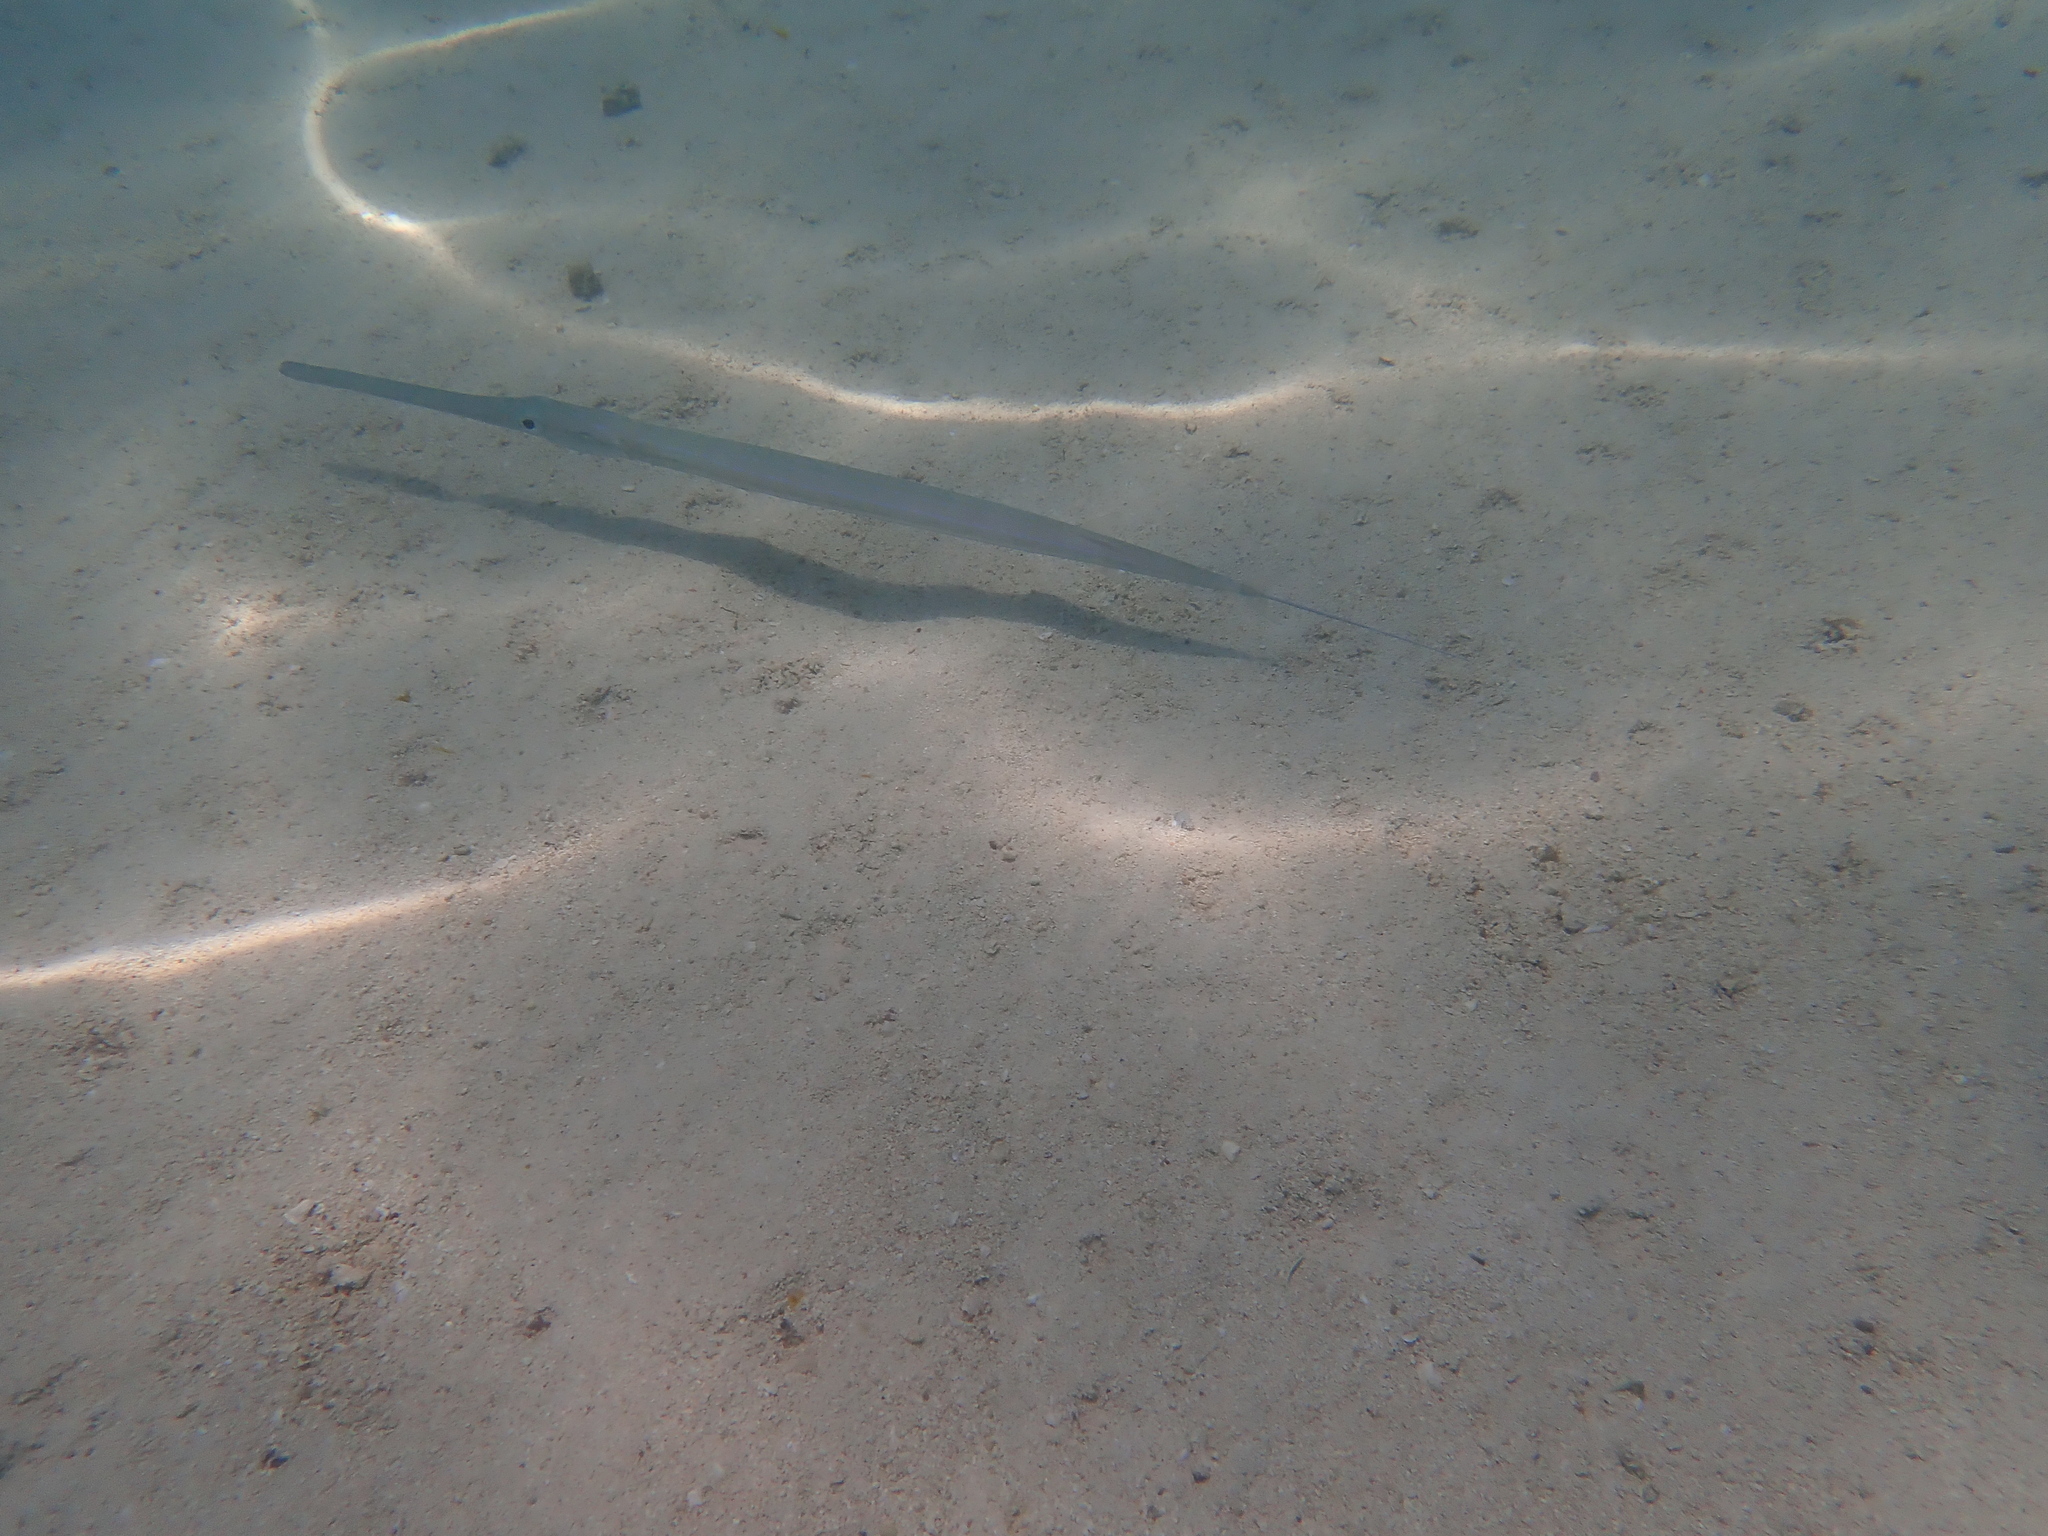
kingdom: Animalia
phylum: Chordata
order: Syngnathiformes
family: Fistulariidae
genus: Fistularia
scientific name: Fistularia commersonii
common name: Bluespotted cornetfish
